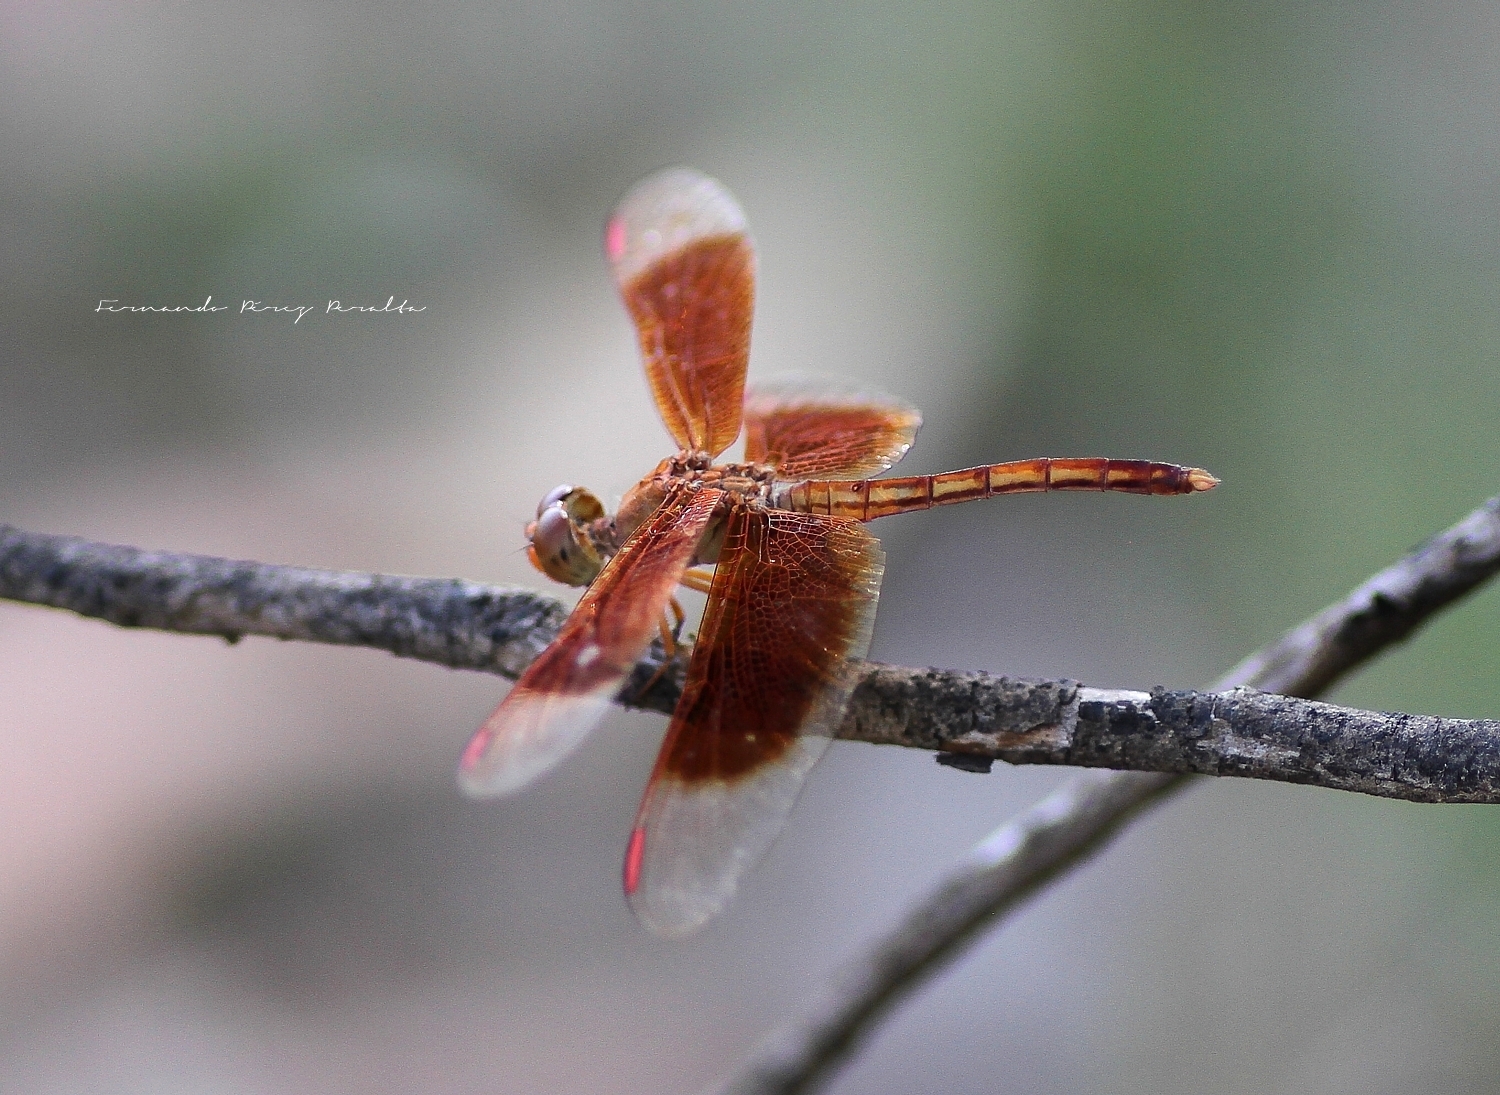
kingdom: Animalia
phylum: Arthropoda
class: Insecta
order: Odonata
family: Libellulidae
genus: Neurothemis
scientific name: Neurothemis stigmatizans
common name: Painted grasshawk
